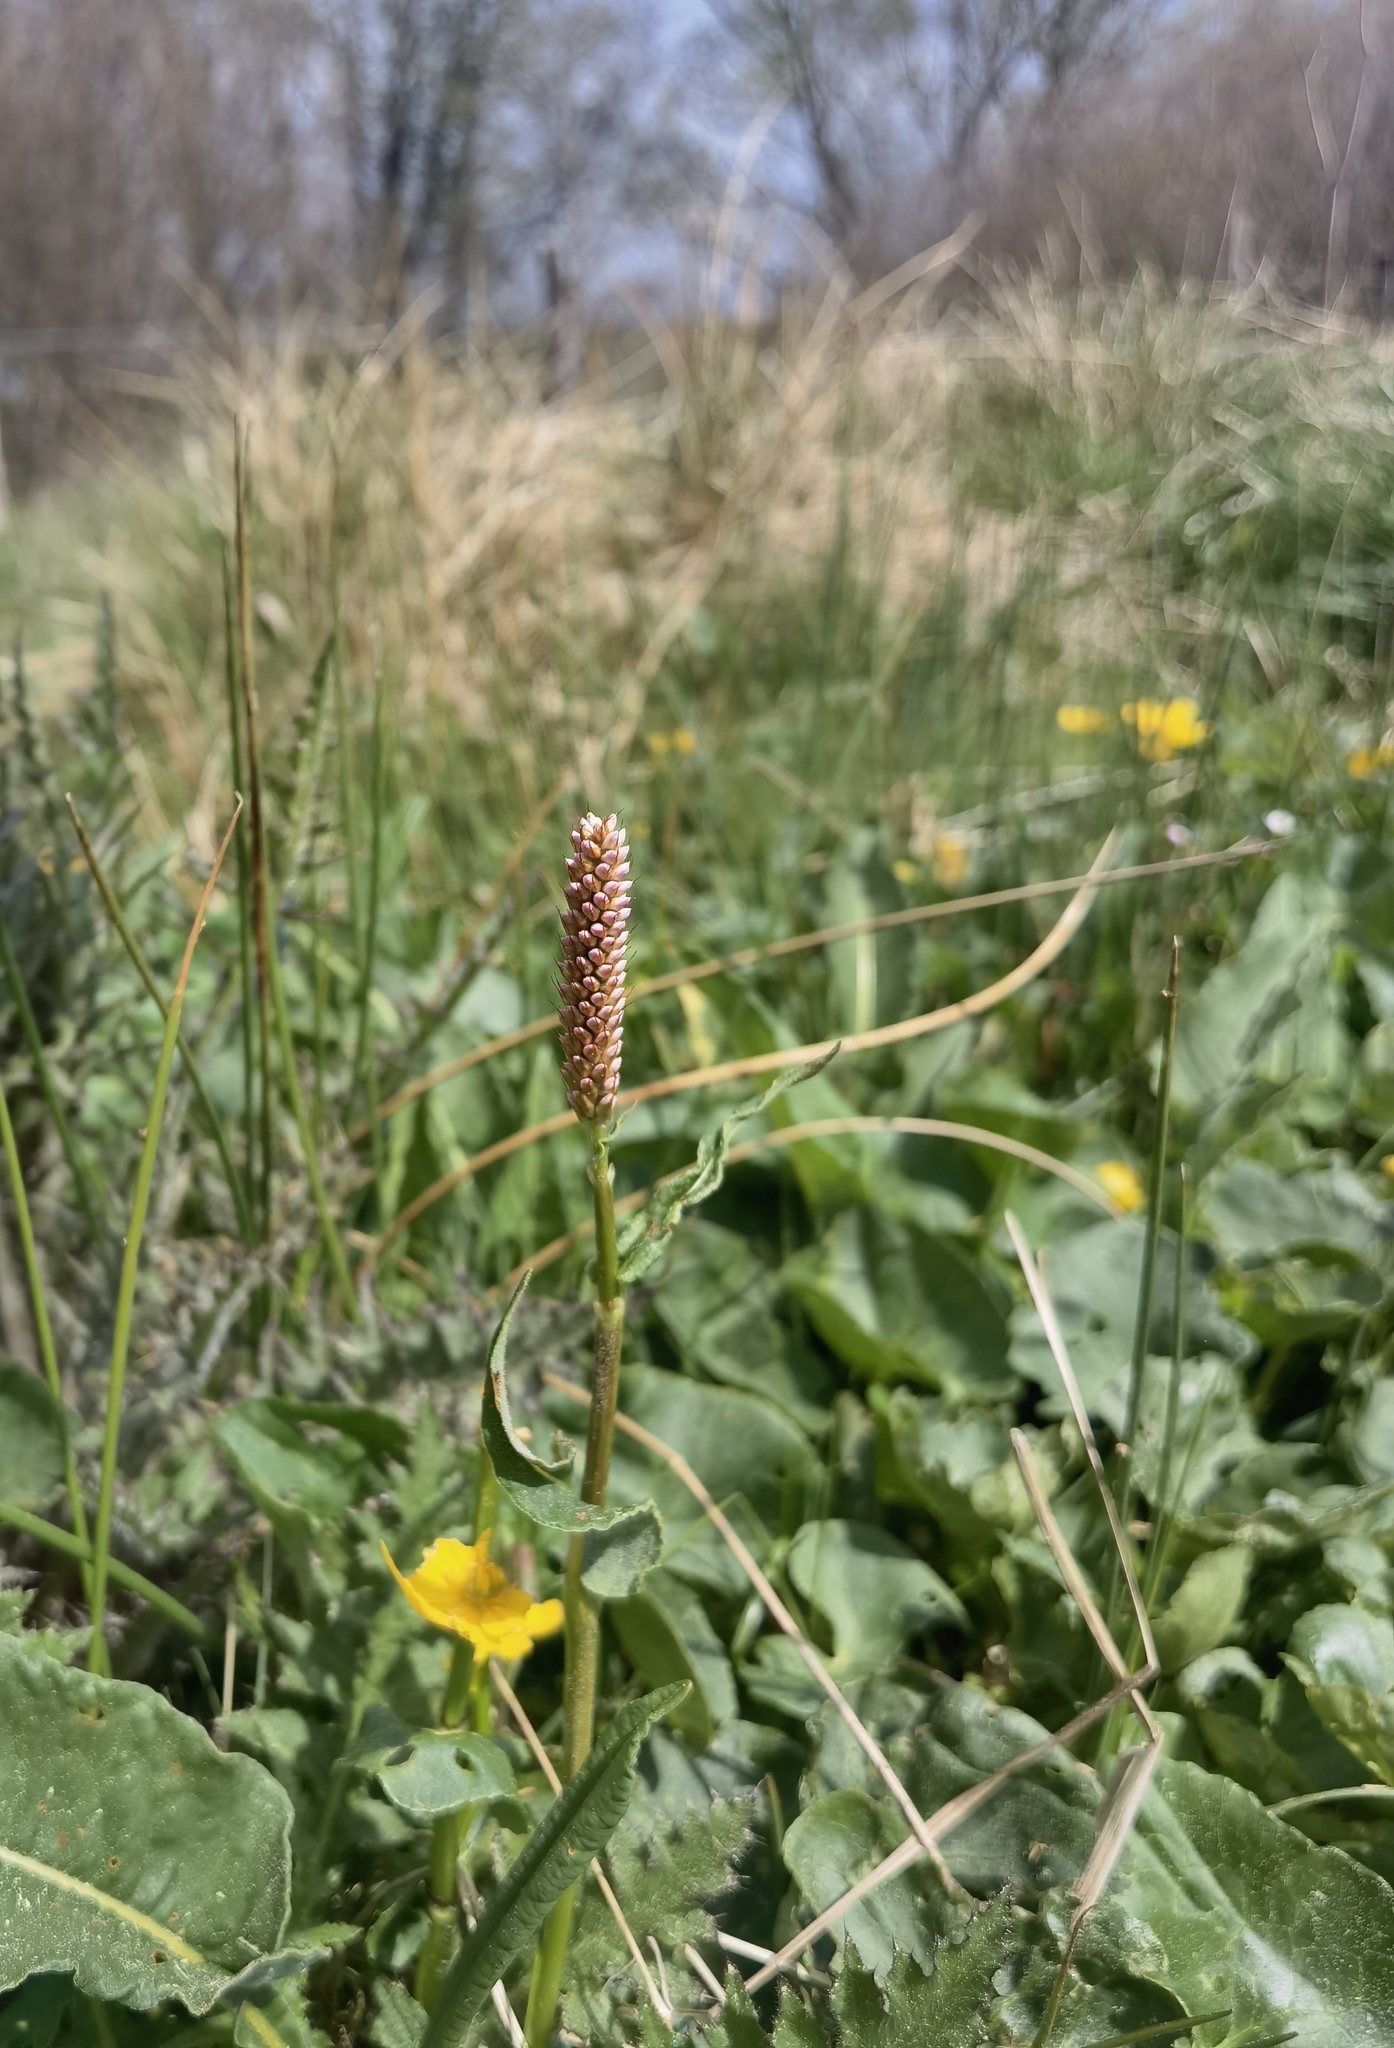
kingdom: Plantae
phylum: Tracheophyta
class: Magnoliopsida
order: Caryophyllales
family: Polygonaceae
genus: Bistorta
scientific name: Bistorta officinalis
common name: Common bistort
